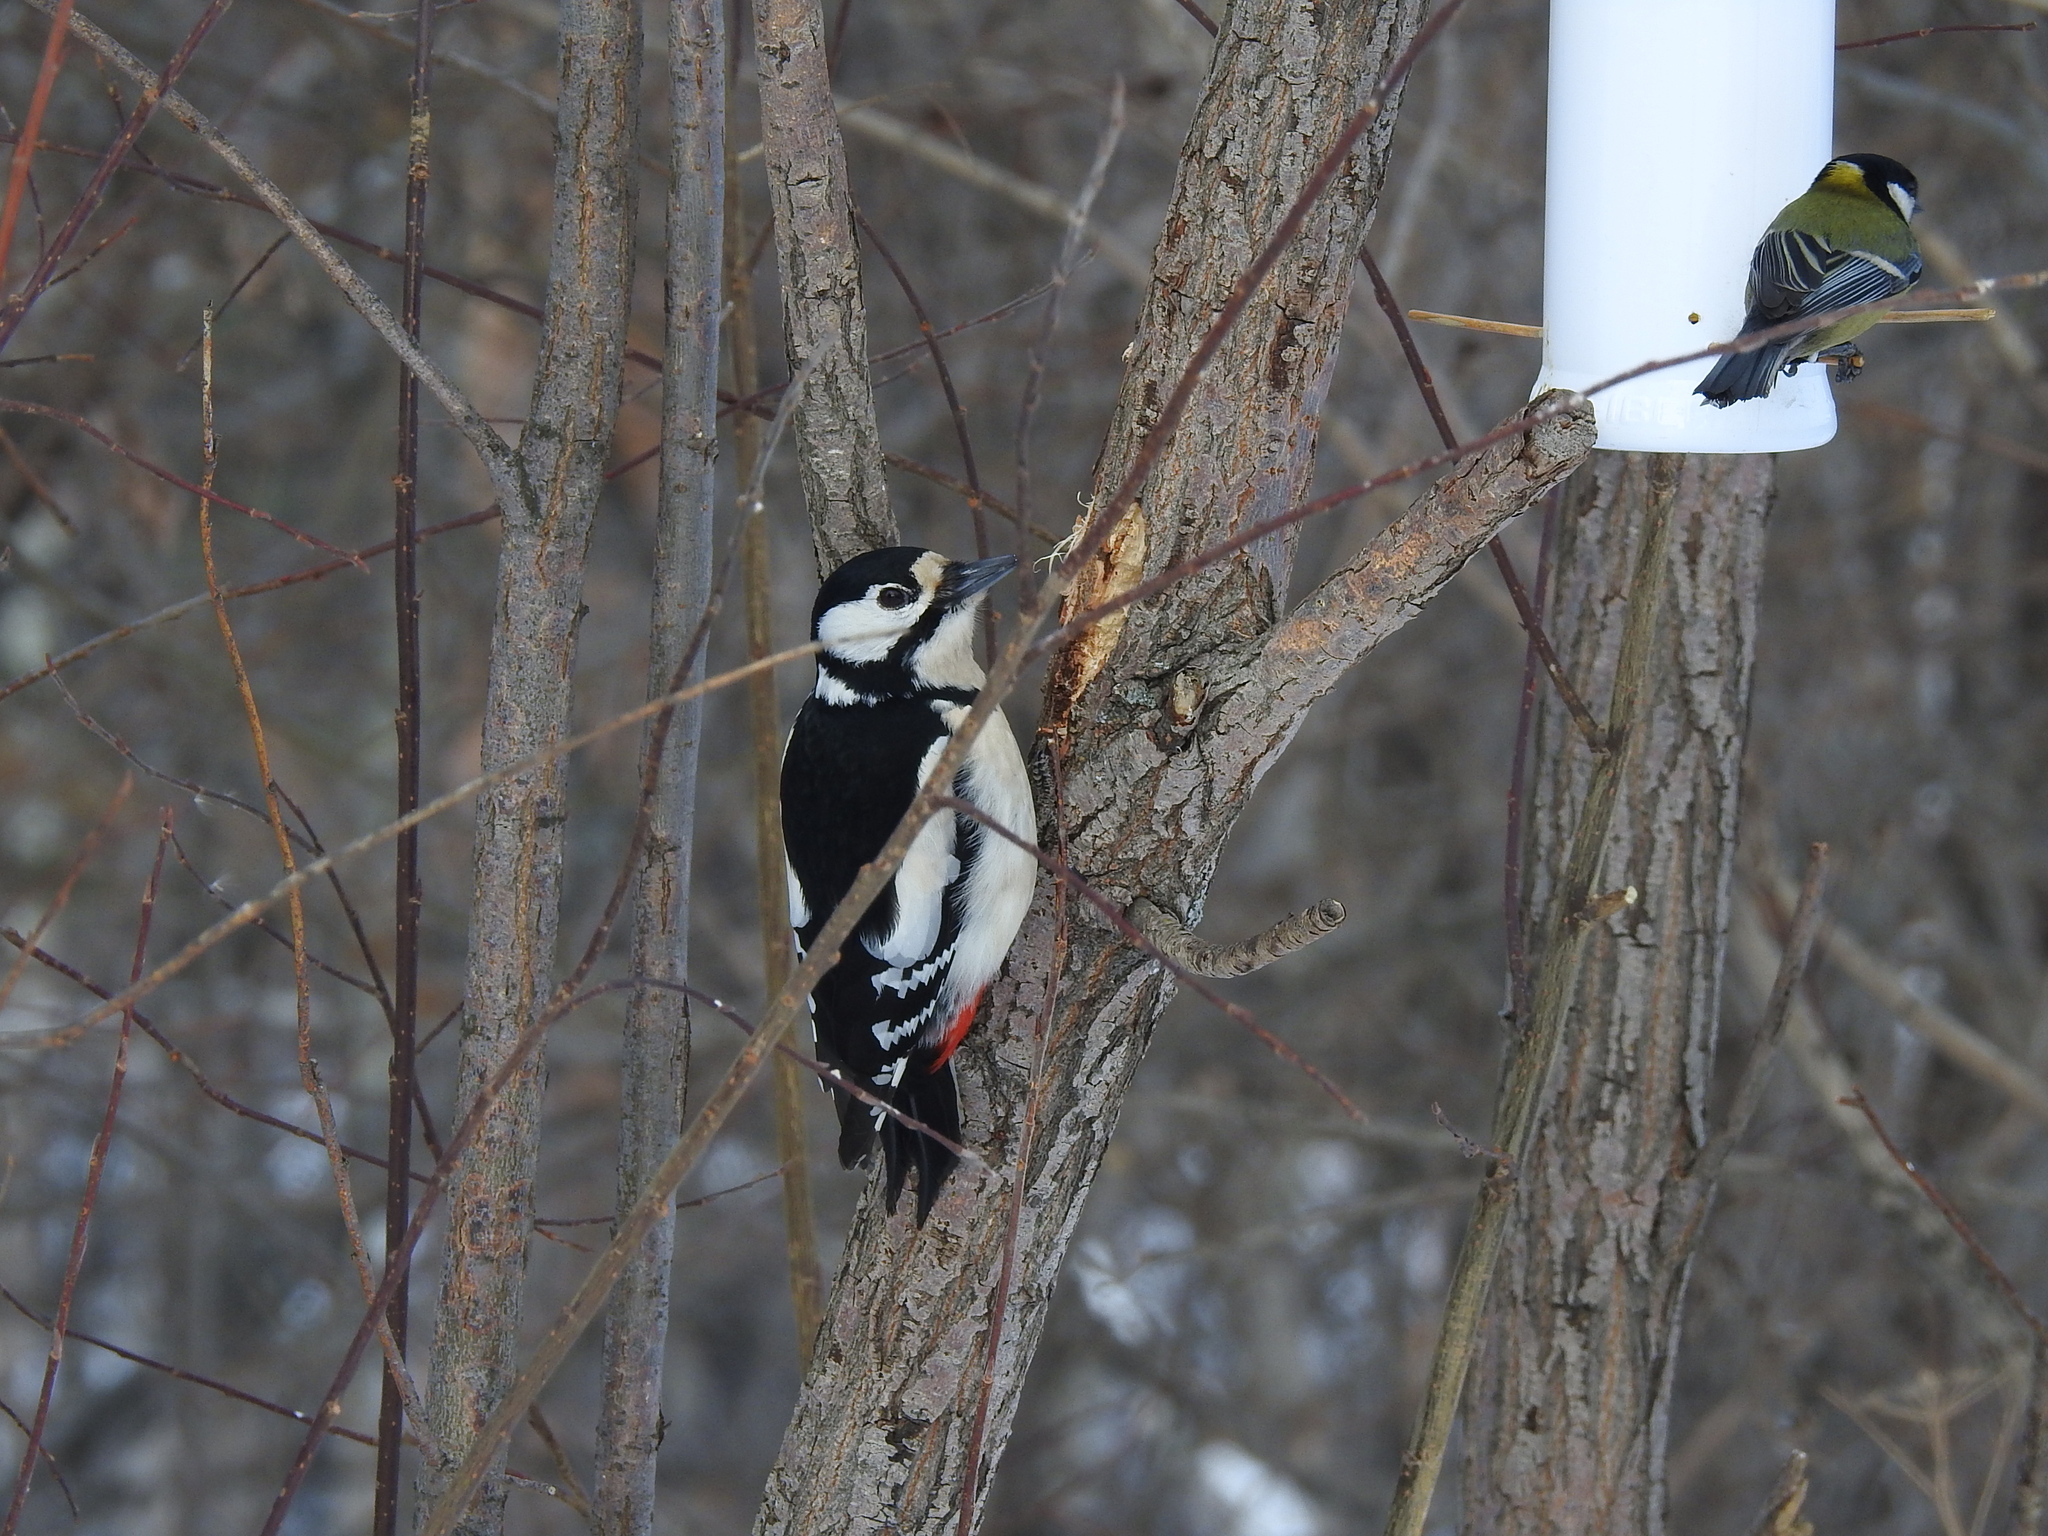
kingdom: Animalia
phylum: Chordata
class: Aves
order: Piciformes
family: Picidae
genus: Dendrocopos
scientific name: Dendrocopos major
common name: Great spotted woodpecker
